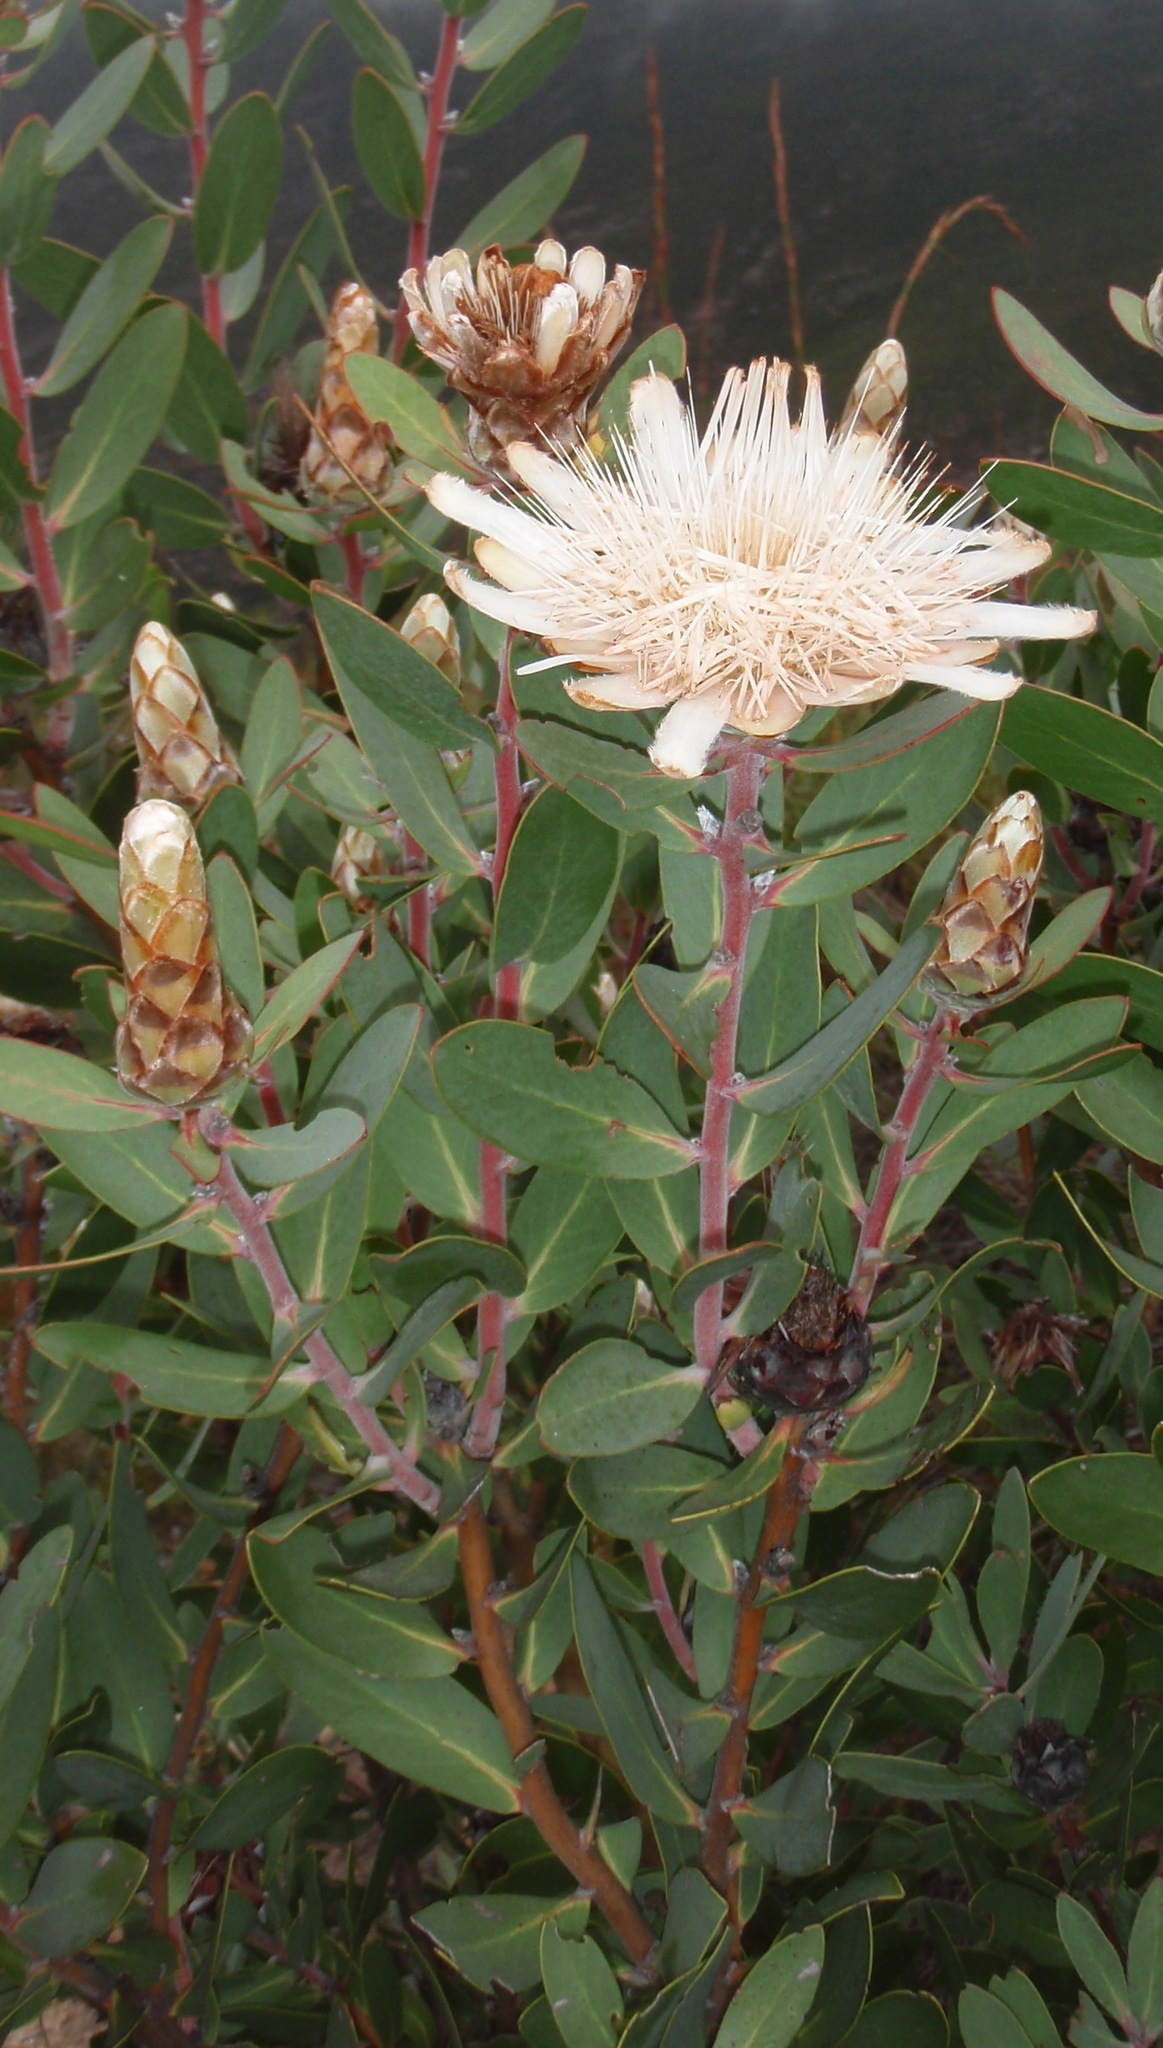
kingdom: Plantae
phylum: Tracheophyta
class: Magnoliopsida
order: Proteales
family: Proteaceae
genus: Protea
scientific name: Protea punctata
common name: Water sugarbush
